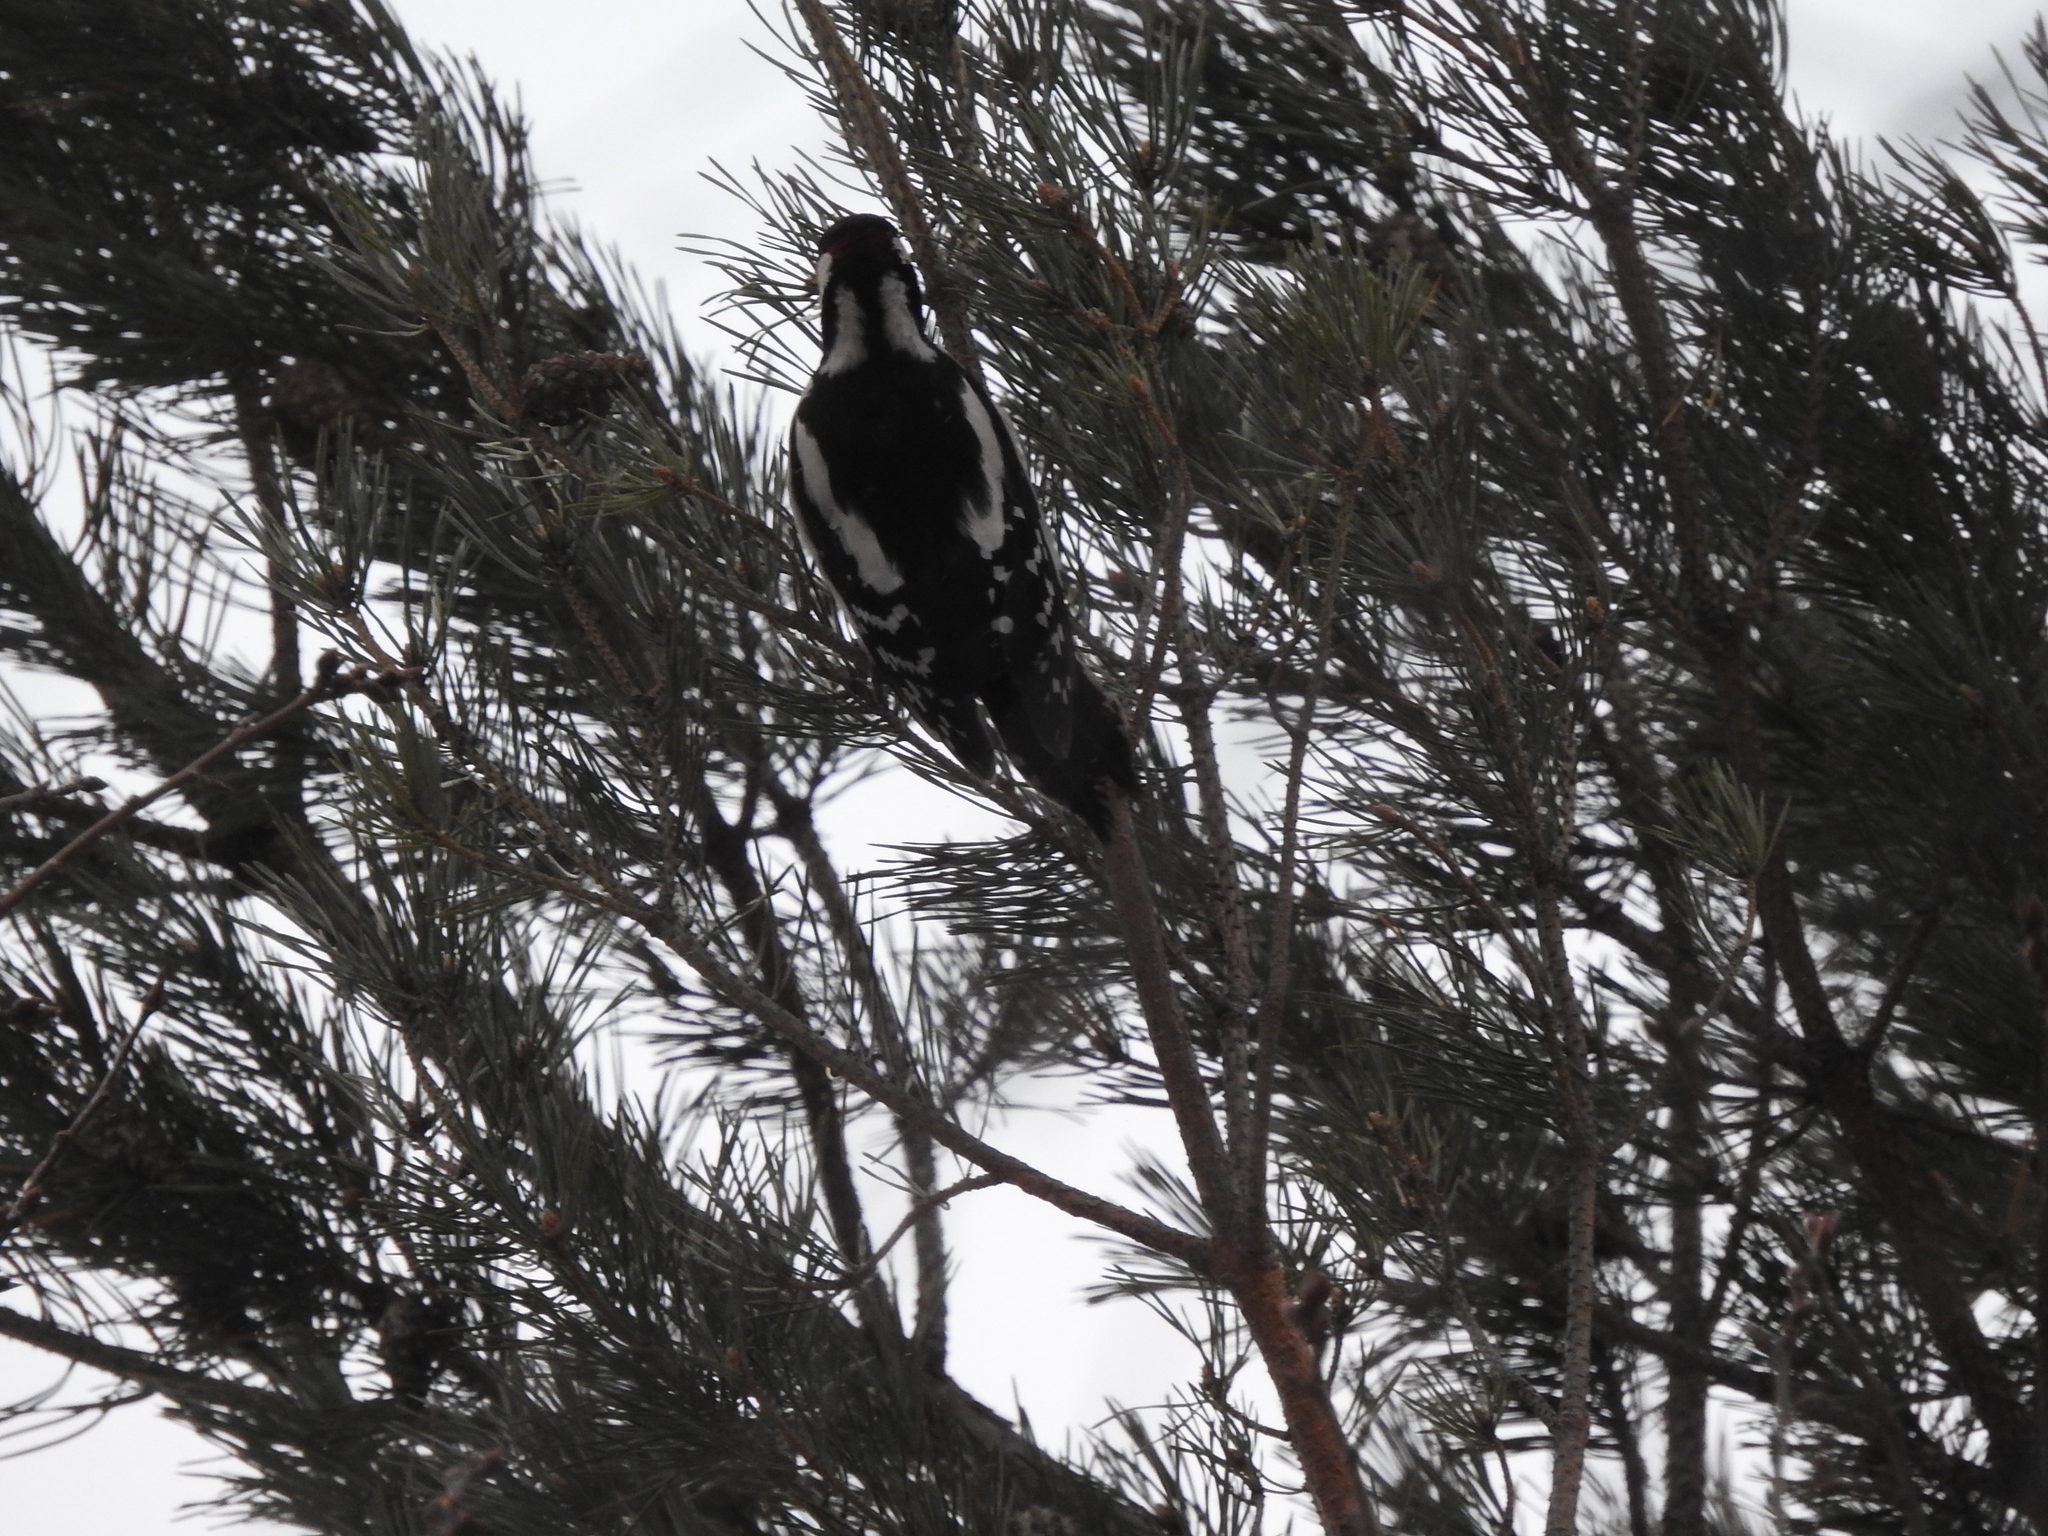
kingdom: Animalia
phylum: Chordata
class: Aves
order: Piciformes
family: Picidae
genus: Dendrocopos
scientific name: Dendrocopos major
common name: Great spotted woodpecker
